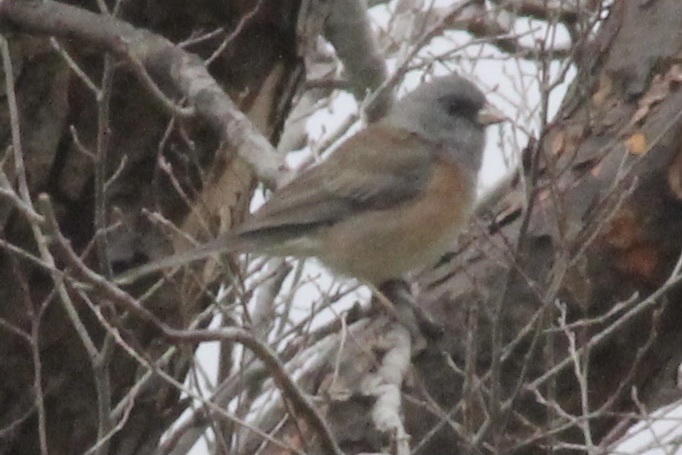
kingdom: Animalia
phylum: Chordata
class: Aves
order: Passeriformes
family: Passerellidae
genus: Junco
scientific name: Junco hyemalis
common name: Dark-eyed junco
